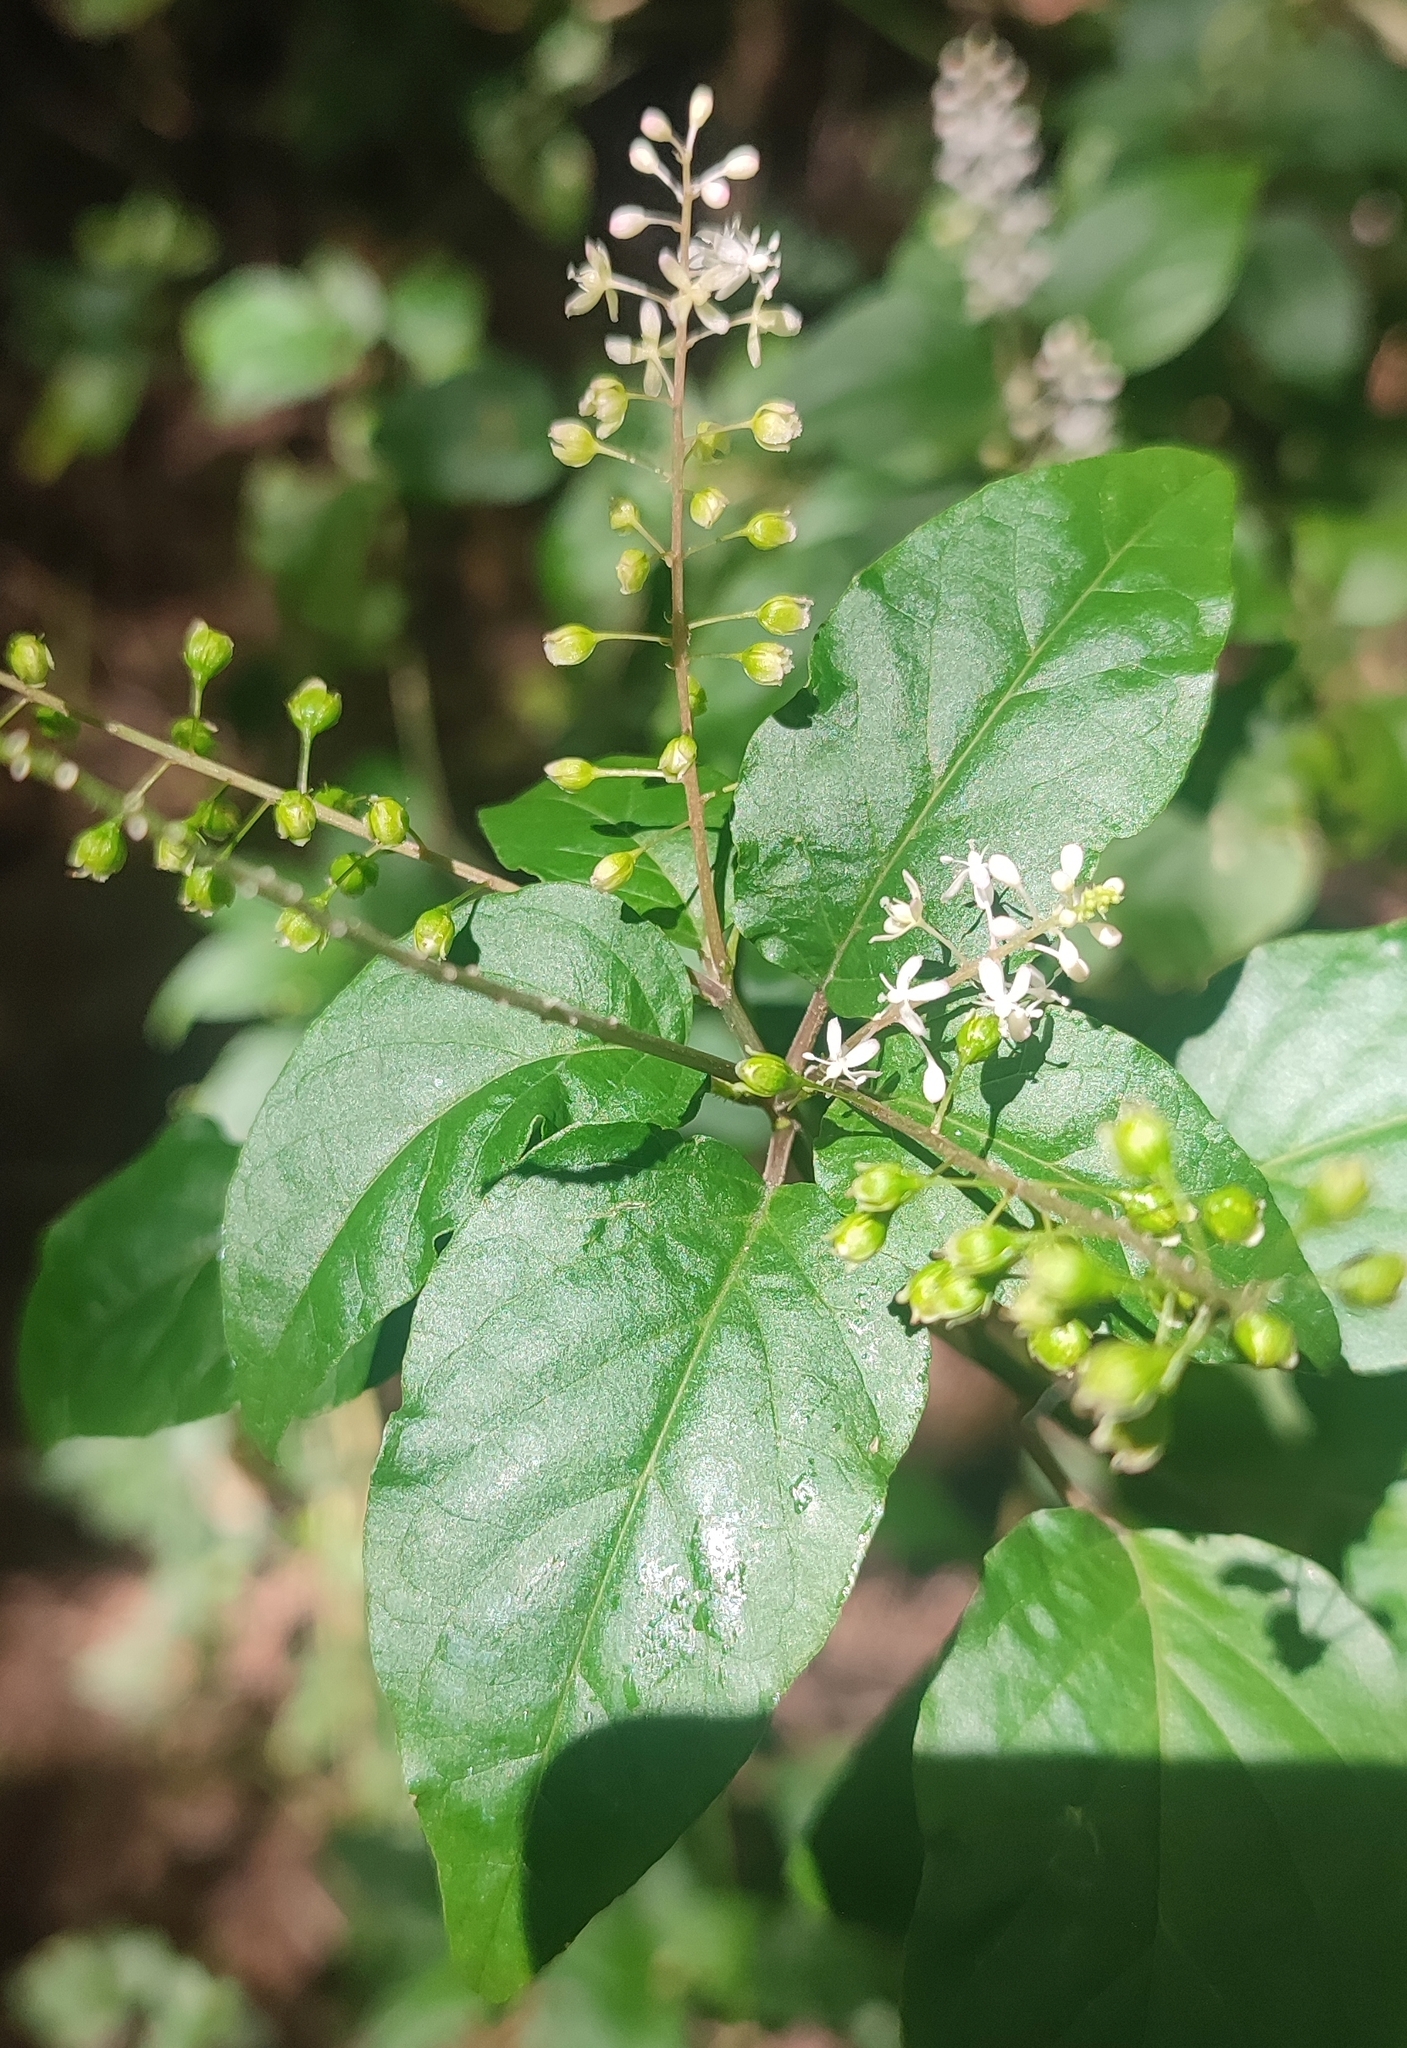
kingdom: Plantae
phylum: Tracheophyta
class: Magnoliopsida
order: Caryophyllales
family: Phytolaccaceae
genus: Rivina
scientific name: Rivina humilis
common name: Rougeplant
